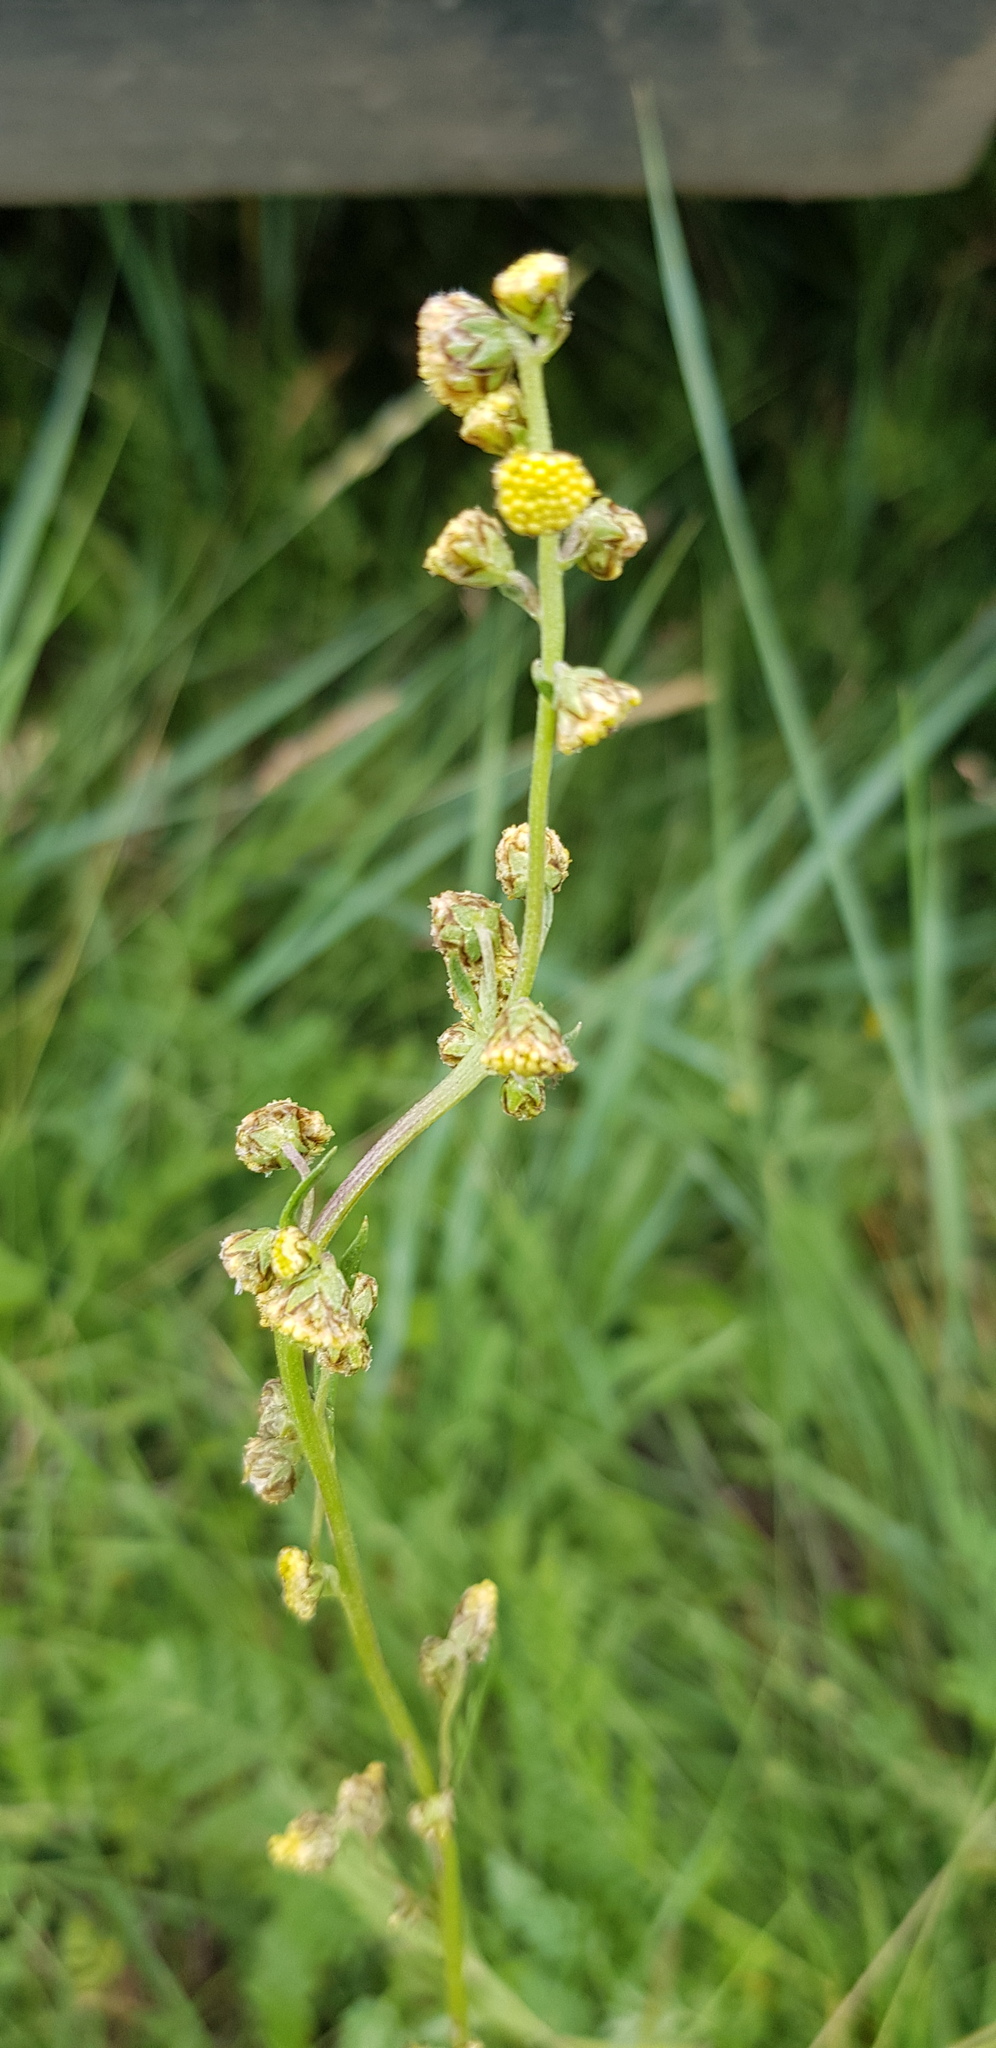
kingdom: Plantae
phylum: Tracheophyta
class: Magnoliopsida
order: Asterales
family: Asteraceae
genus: Artemisia
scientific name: Artemisia tanacetifolia
